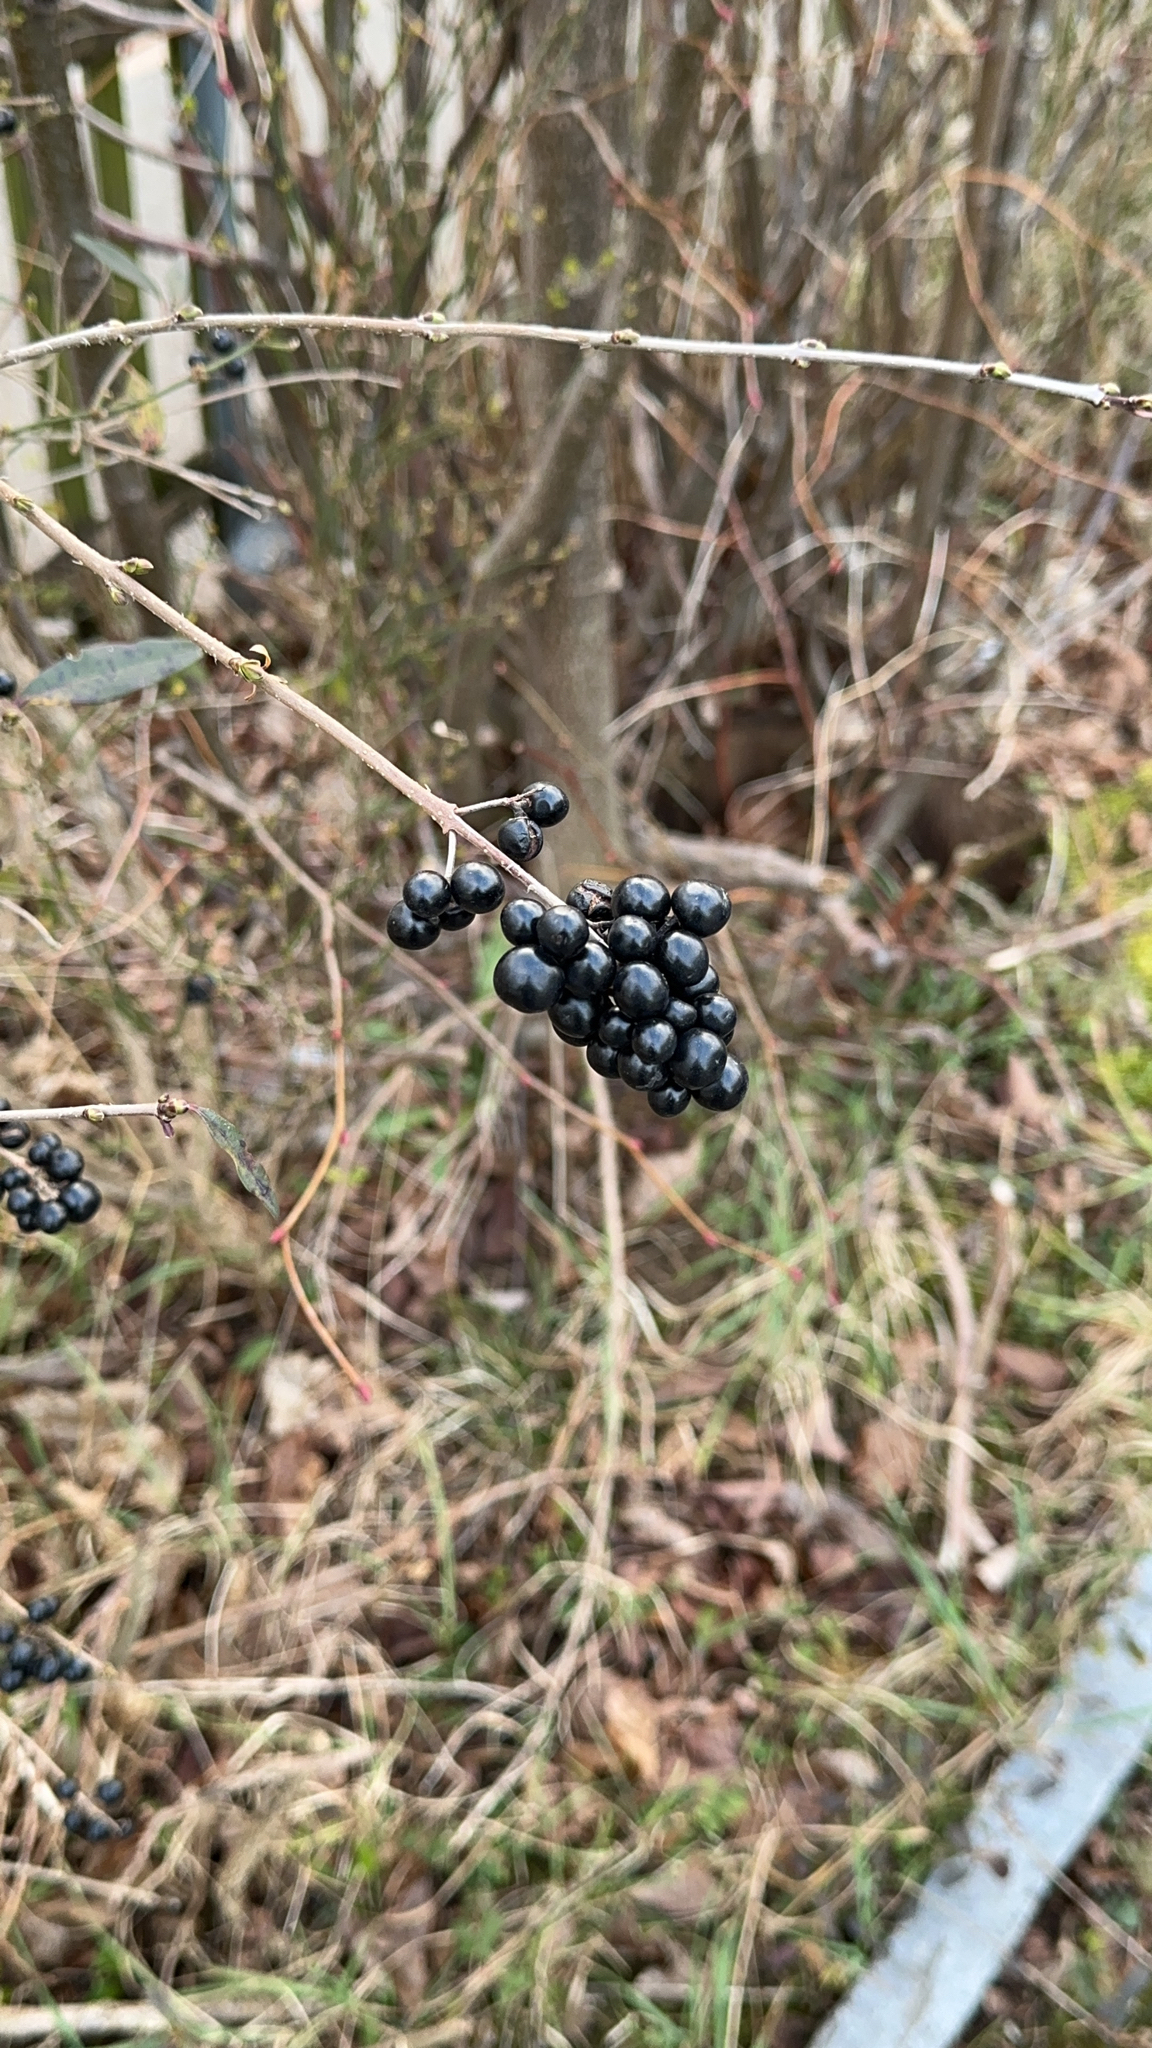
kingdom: Plantae
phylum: Tracheophyta
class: Magnoliopsida
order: Lamiales
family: Oleaceae
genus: Ligustrum
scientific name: Ligustrum vulgare
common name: Wild privet
